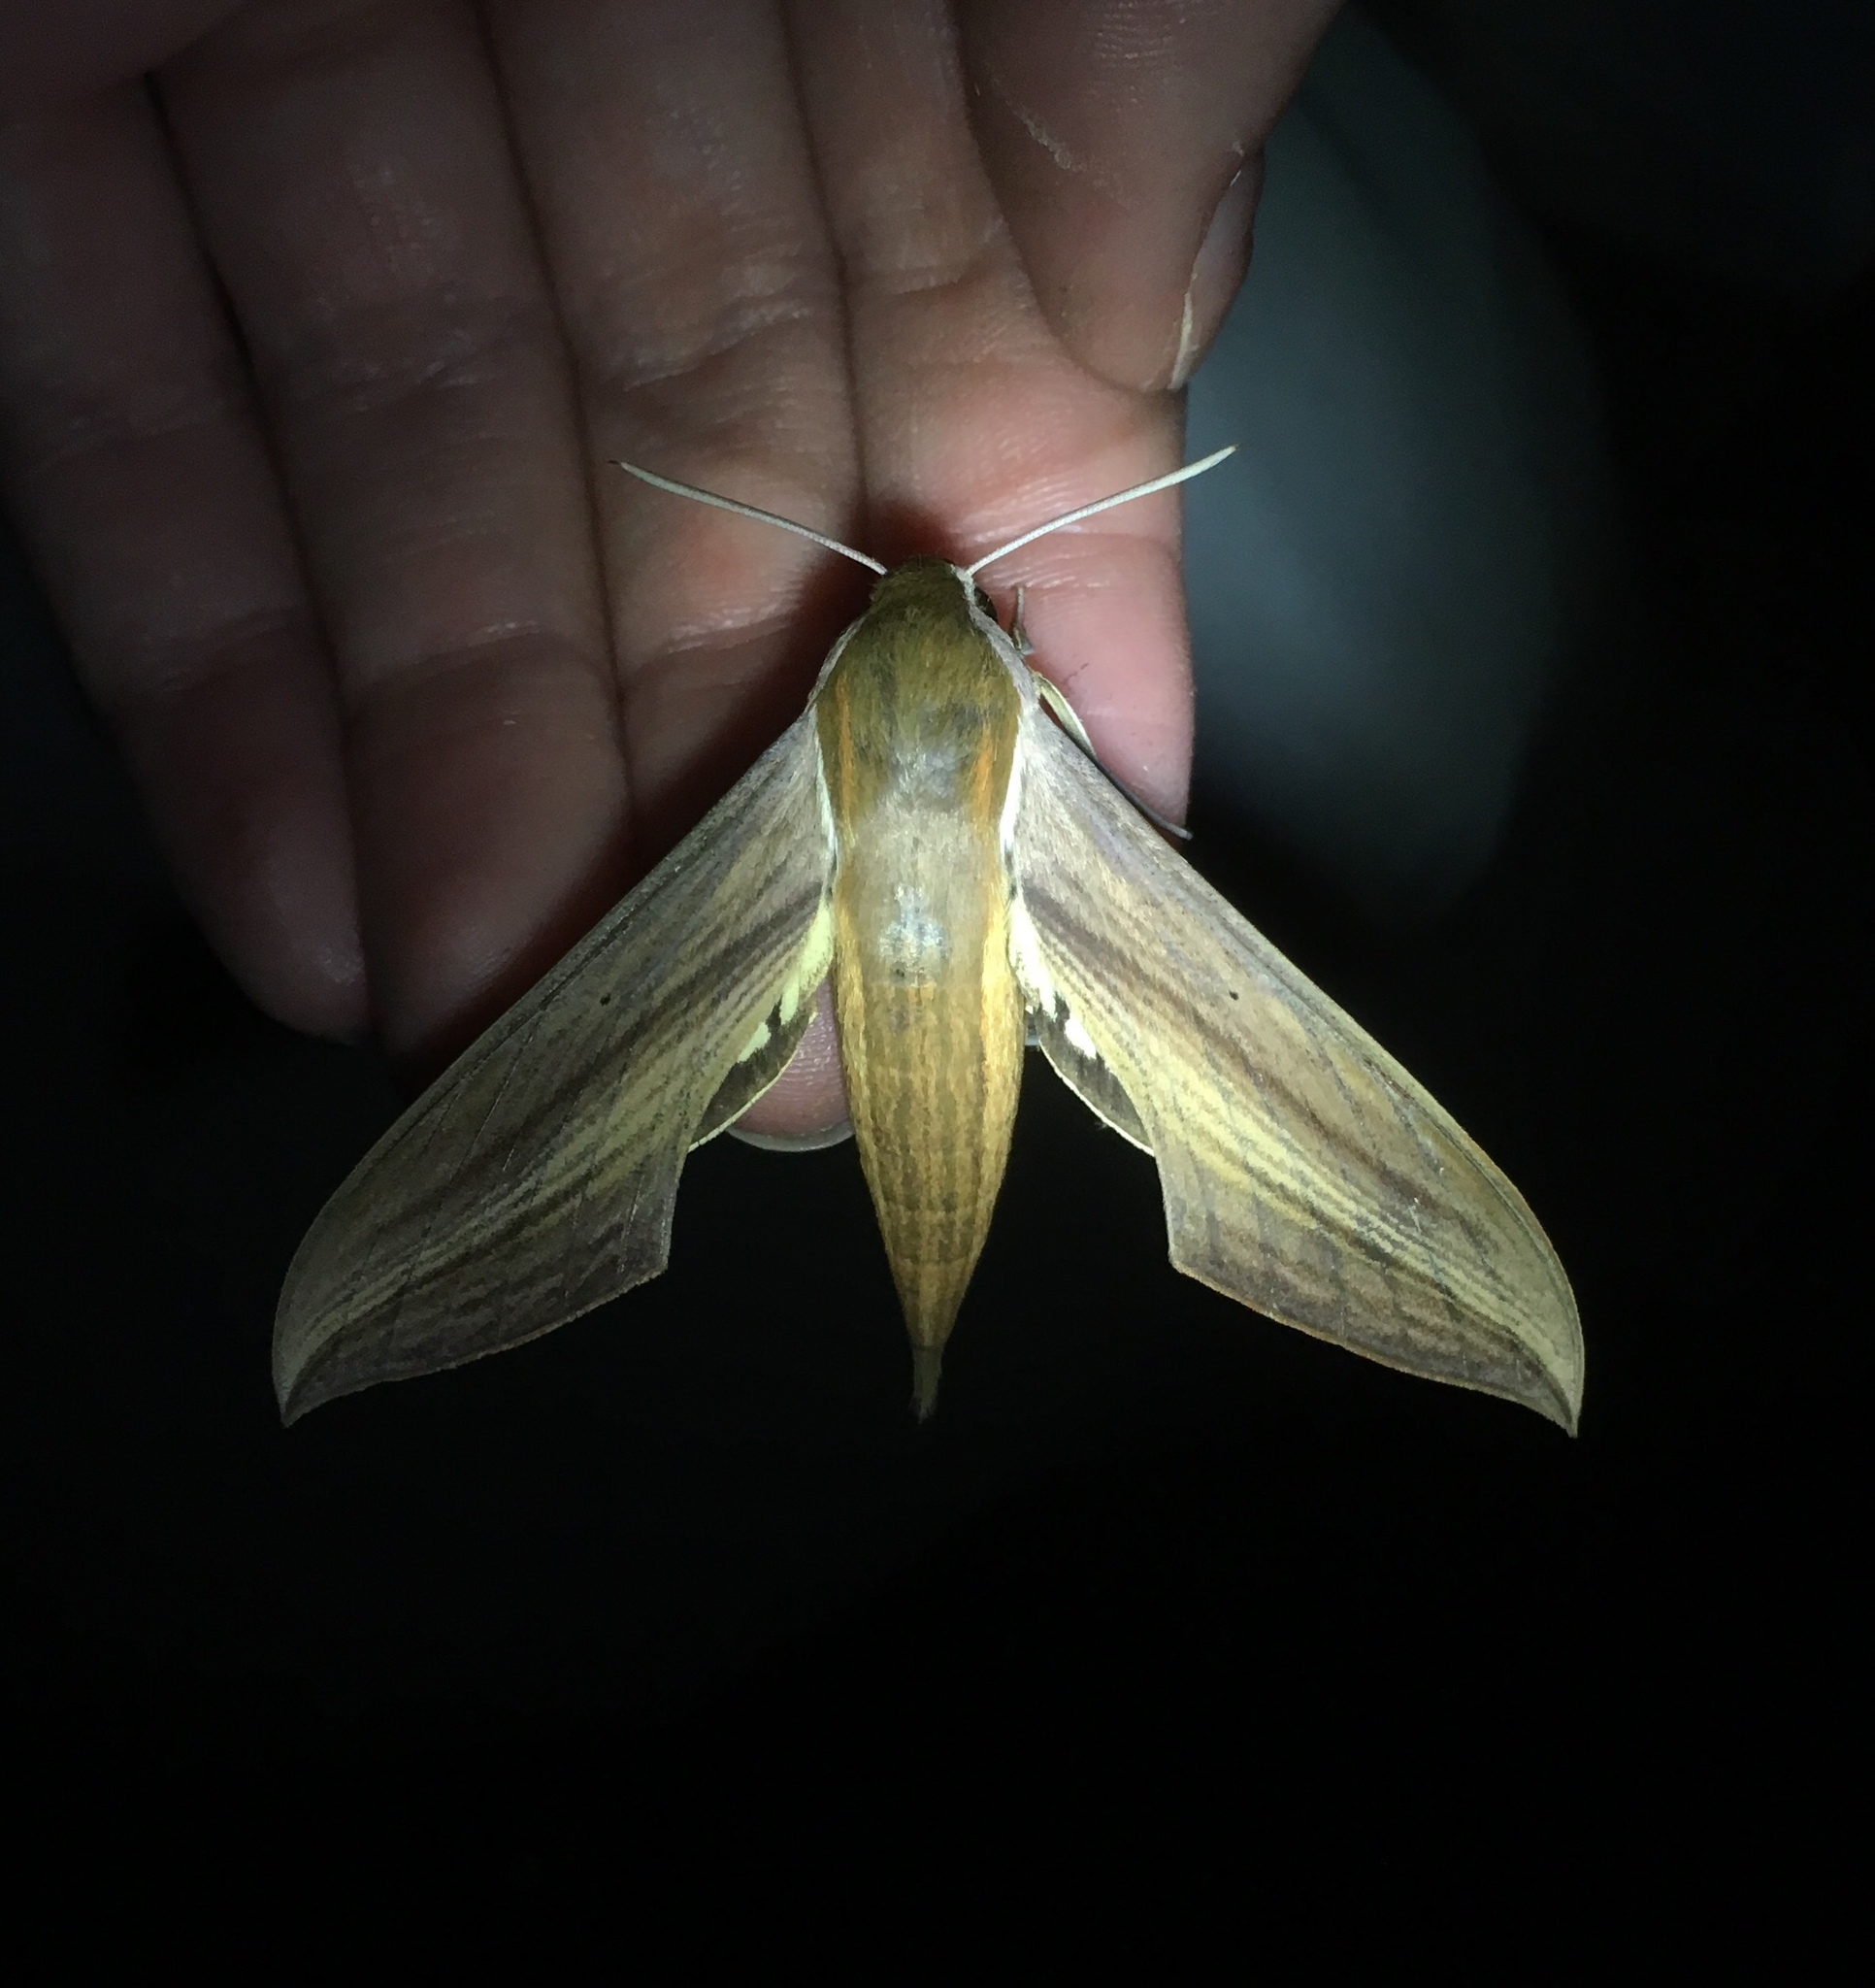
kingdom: Animalia
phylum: Arthropoda
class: Insecta
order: Lepidoptera
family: Sphingidae
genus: Xylophanes
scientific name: Xylophanes tersa
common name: Tersa sphinx
